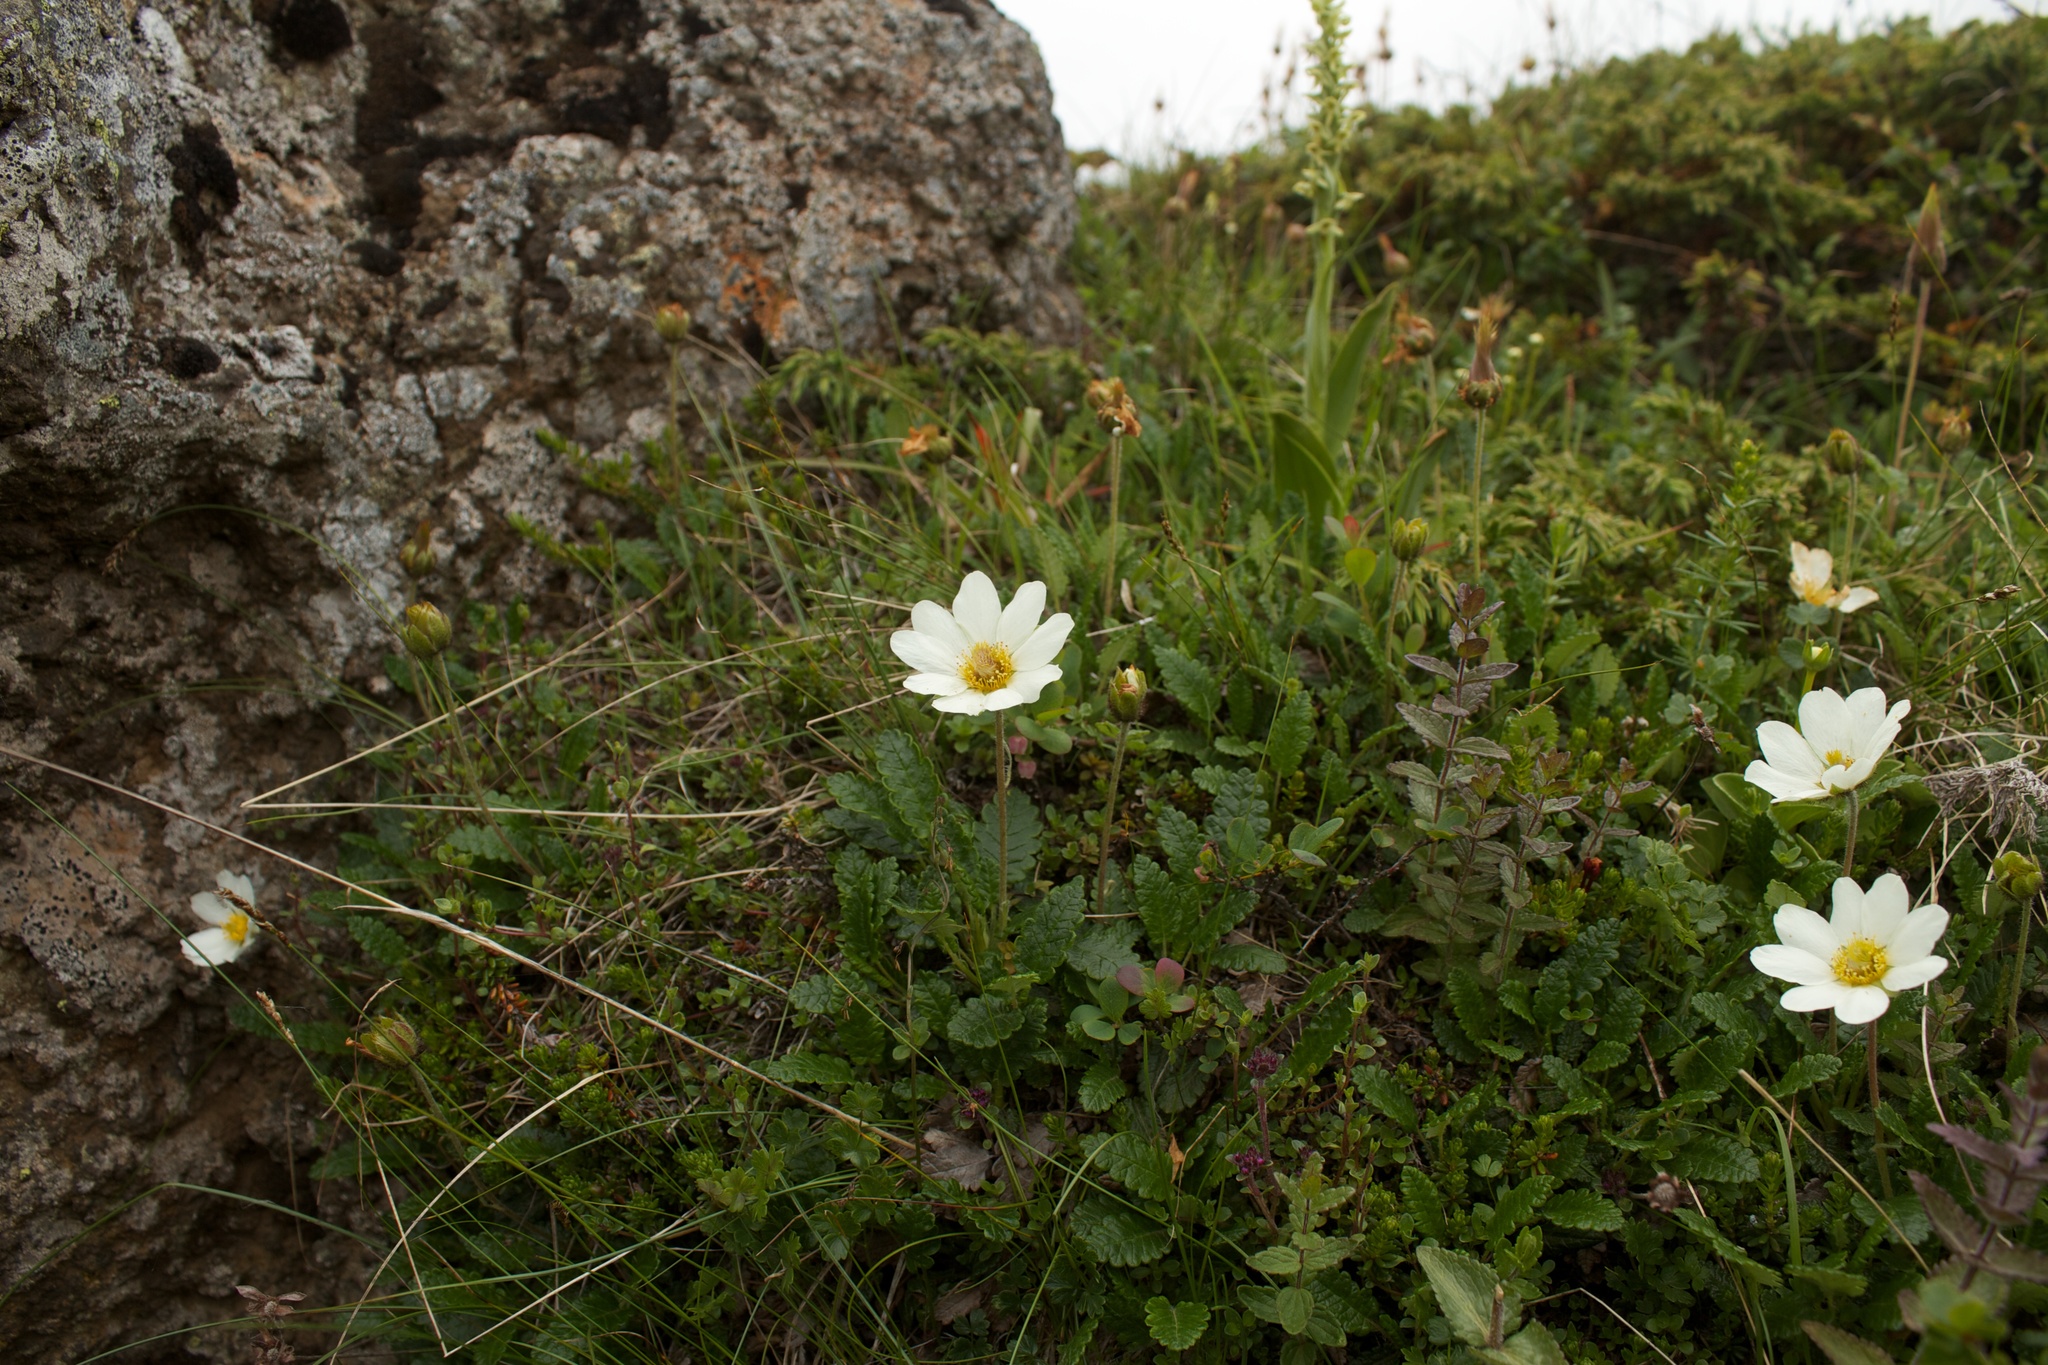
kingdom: Plantae
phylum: Tracheophyta
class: Magnoliopsida
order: Rosales
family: Rosaceae
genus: Dryas
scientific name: Dryas octopetala
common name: Eight-petal mountain-avens
